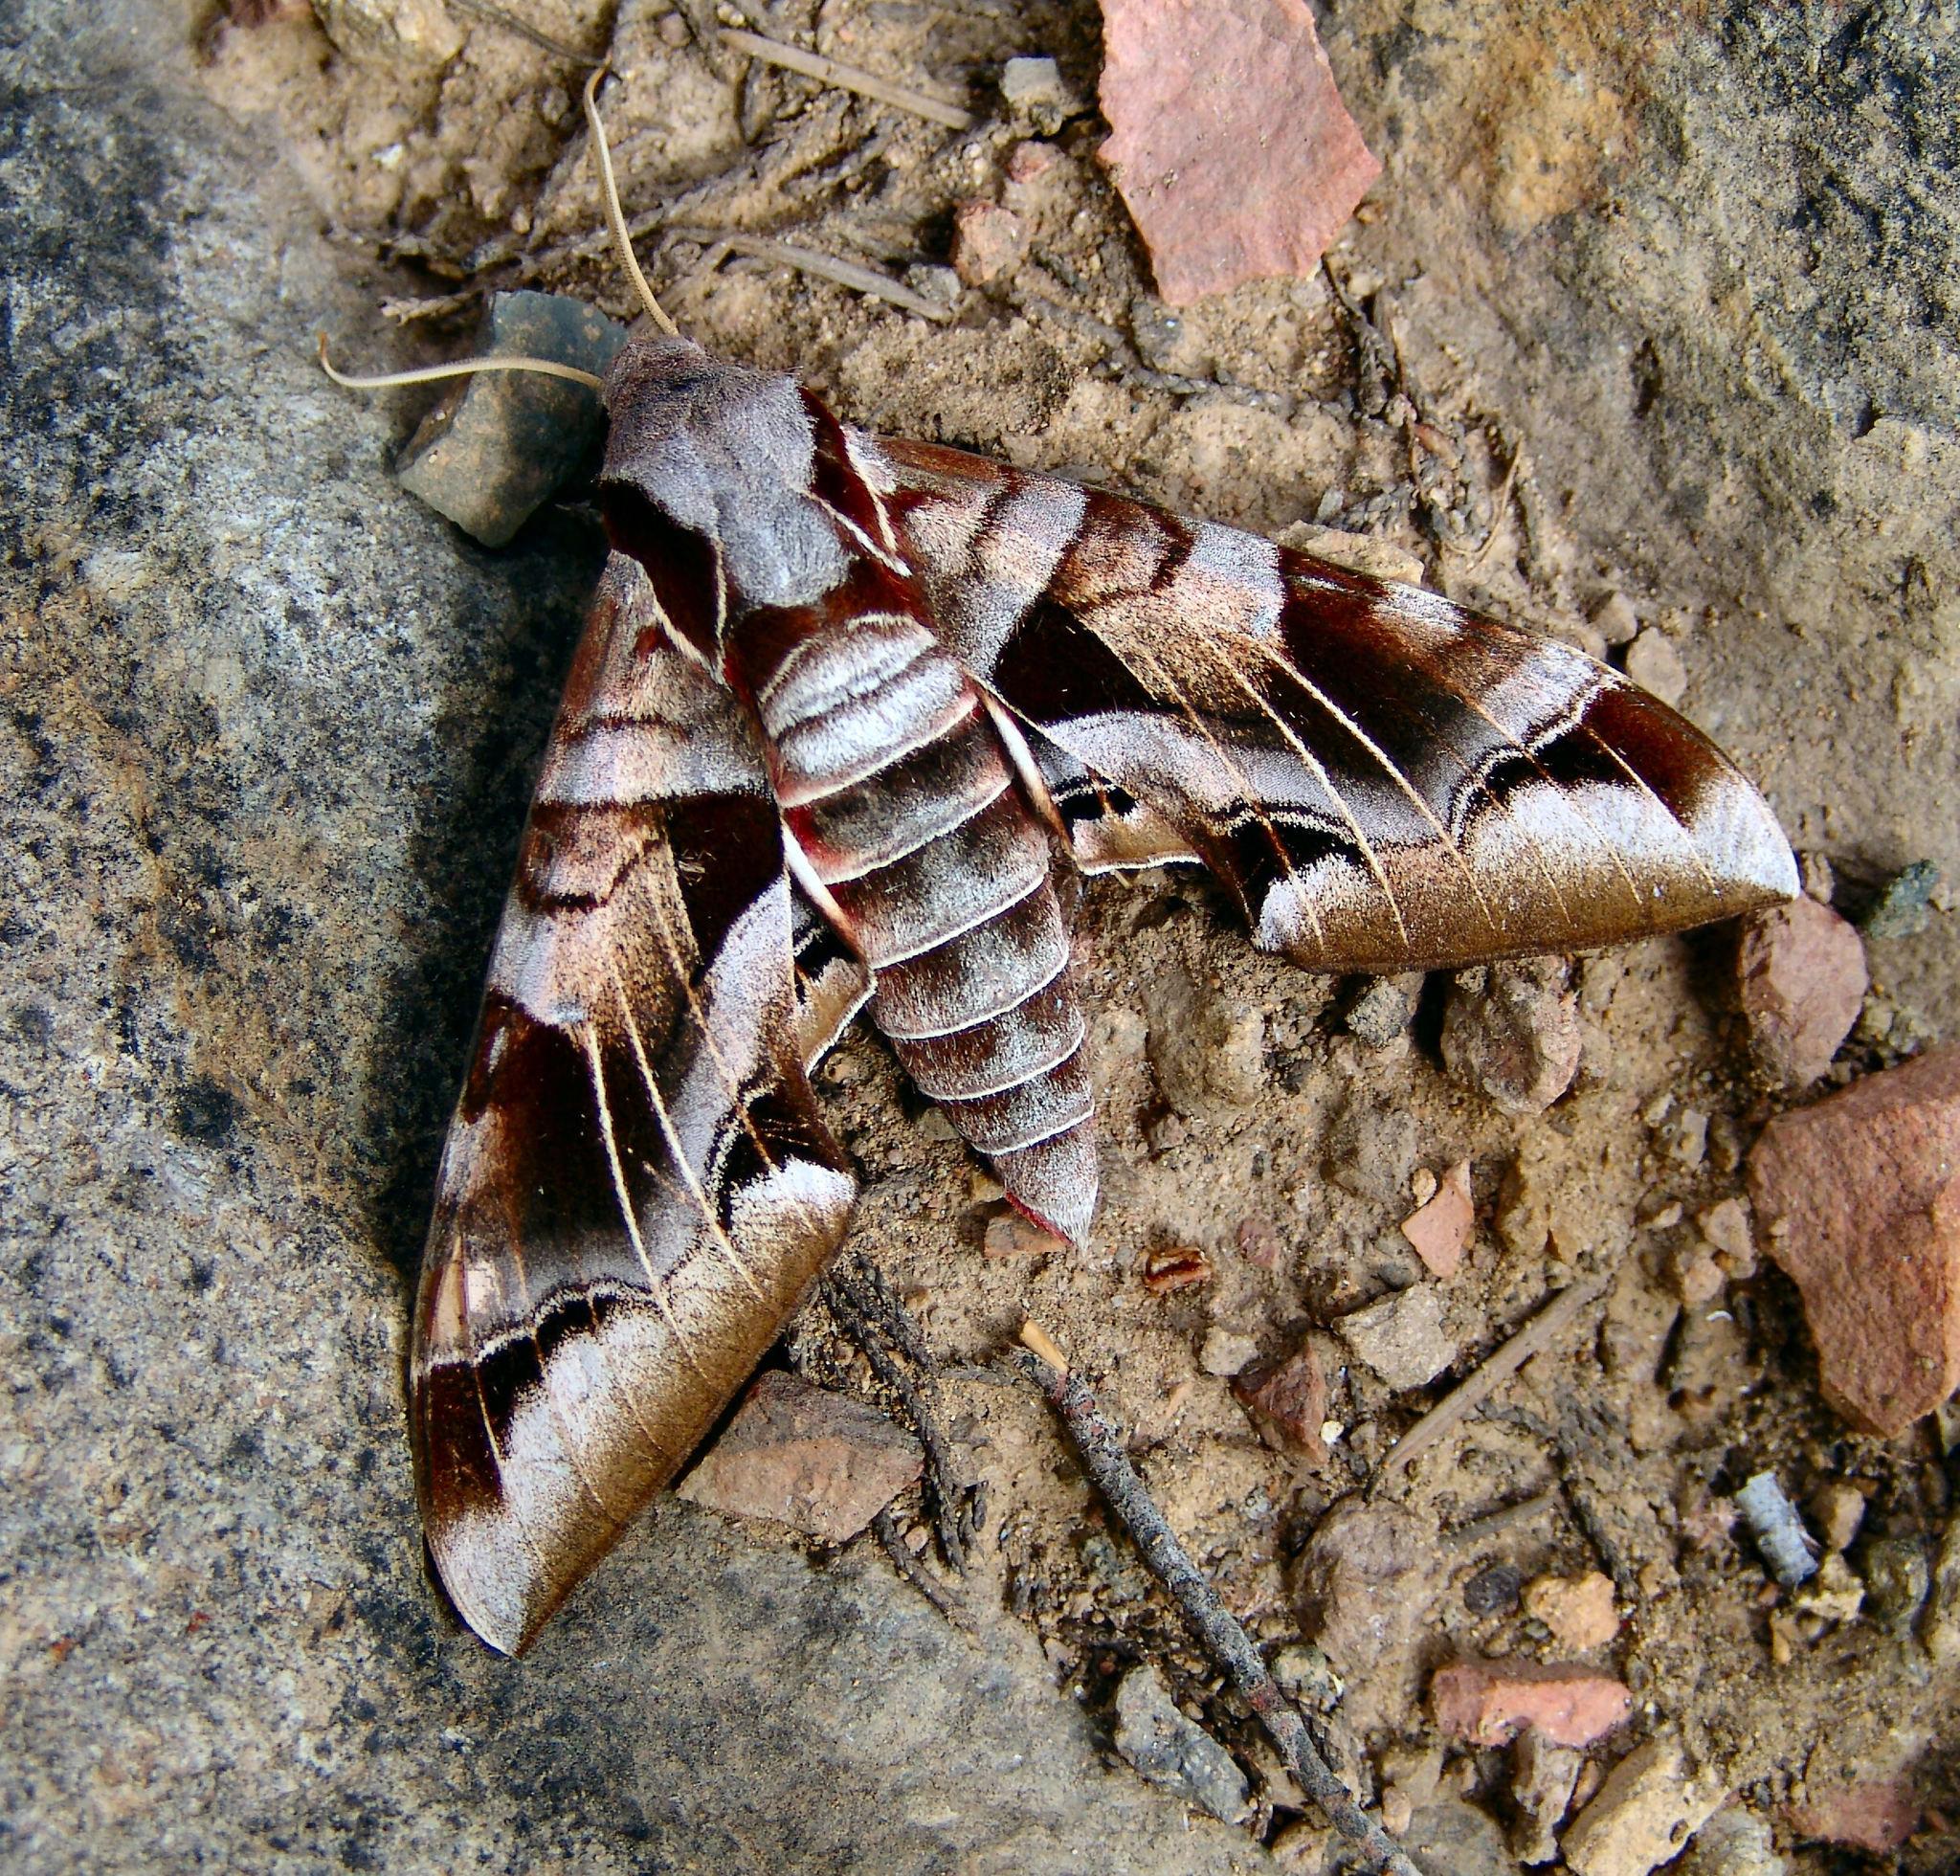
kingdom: Animalia
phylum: Arthropoda
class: Insecta
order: Lepidoptera
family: Sphingidae
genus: Eumorpha
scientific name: Eumorpha typhon
